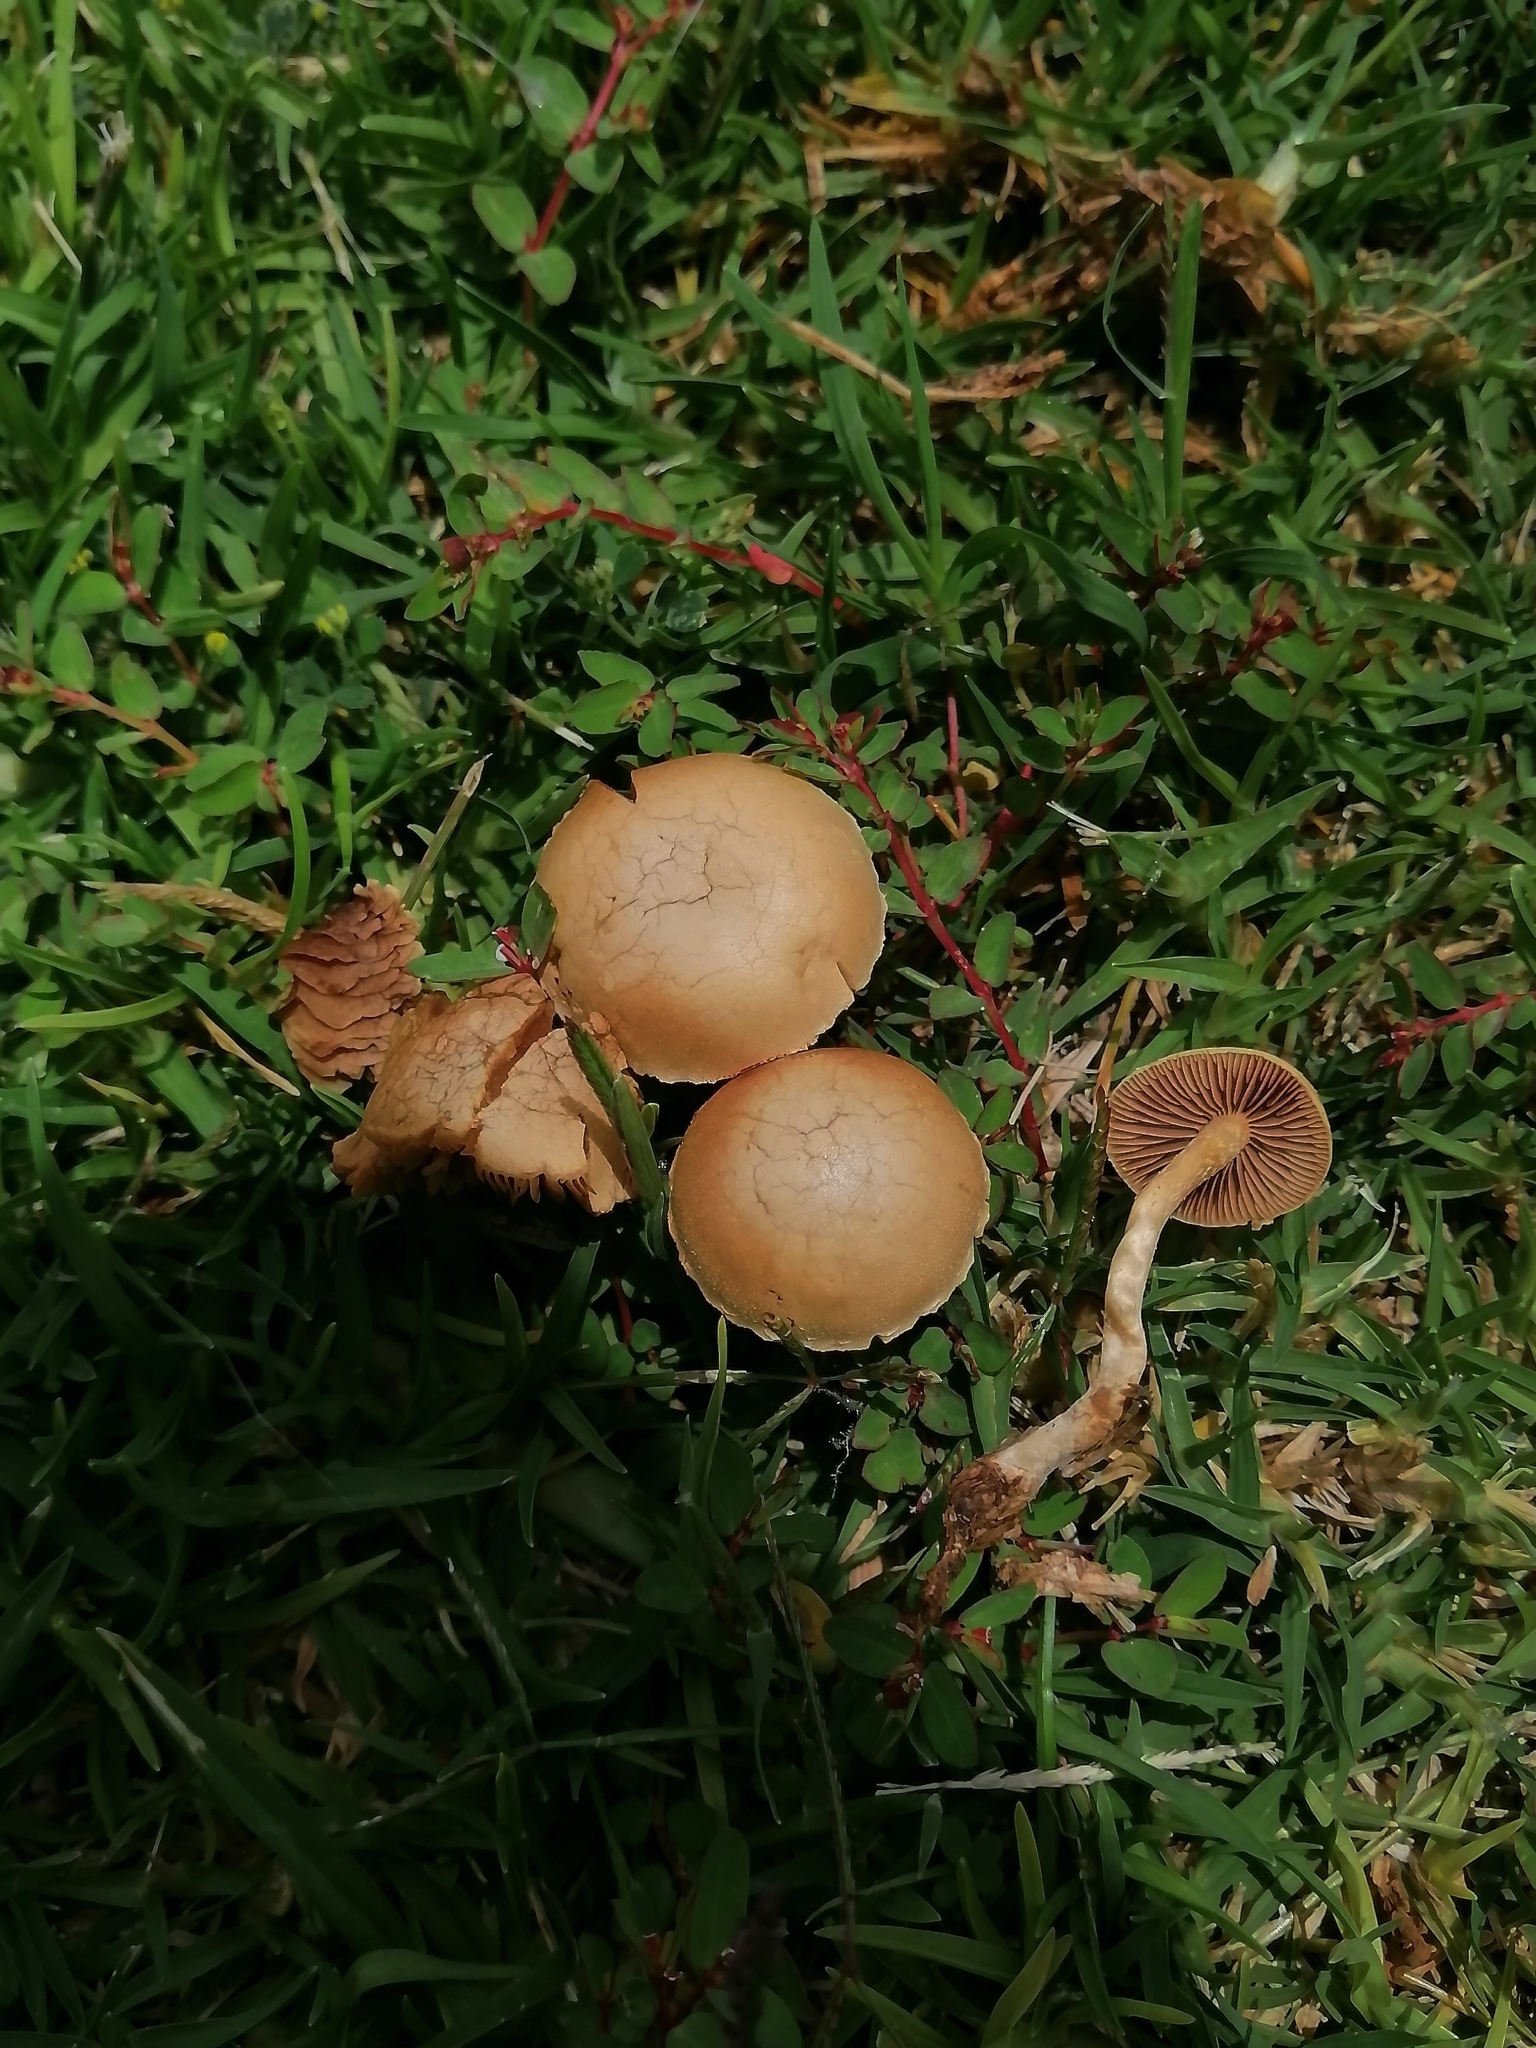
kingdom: Fungi
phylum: Basidiomycota
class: Agaricomycetes
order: Agaricales
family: Strophariaceae
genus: Agrocybe
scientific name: Agrocybe pediades
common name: Common fieldcap
